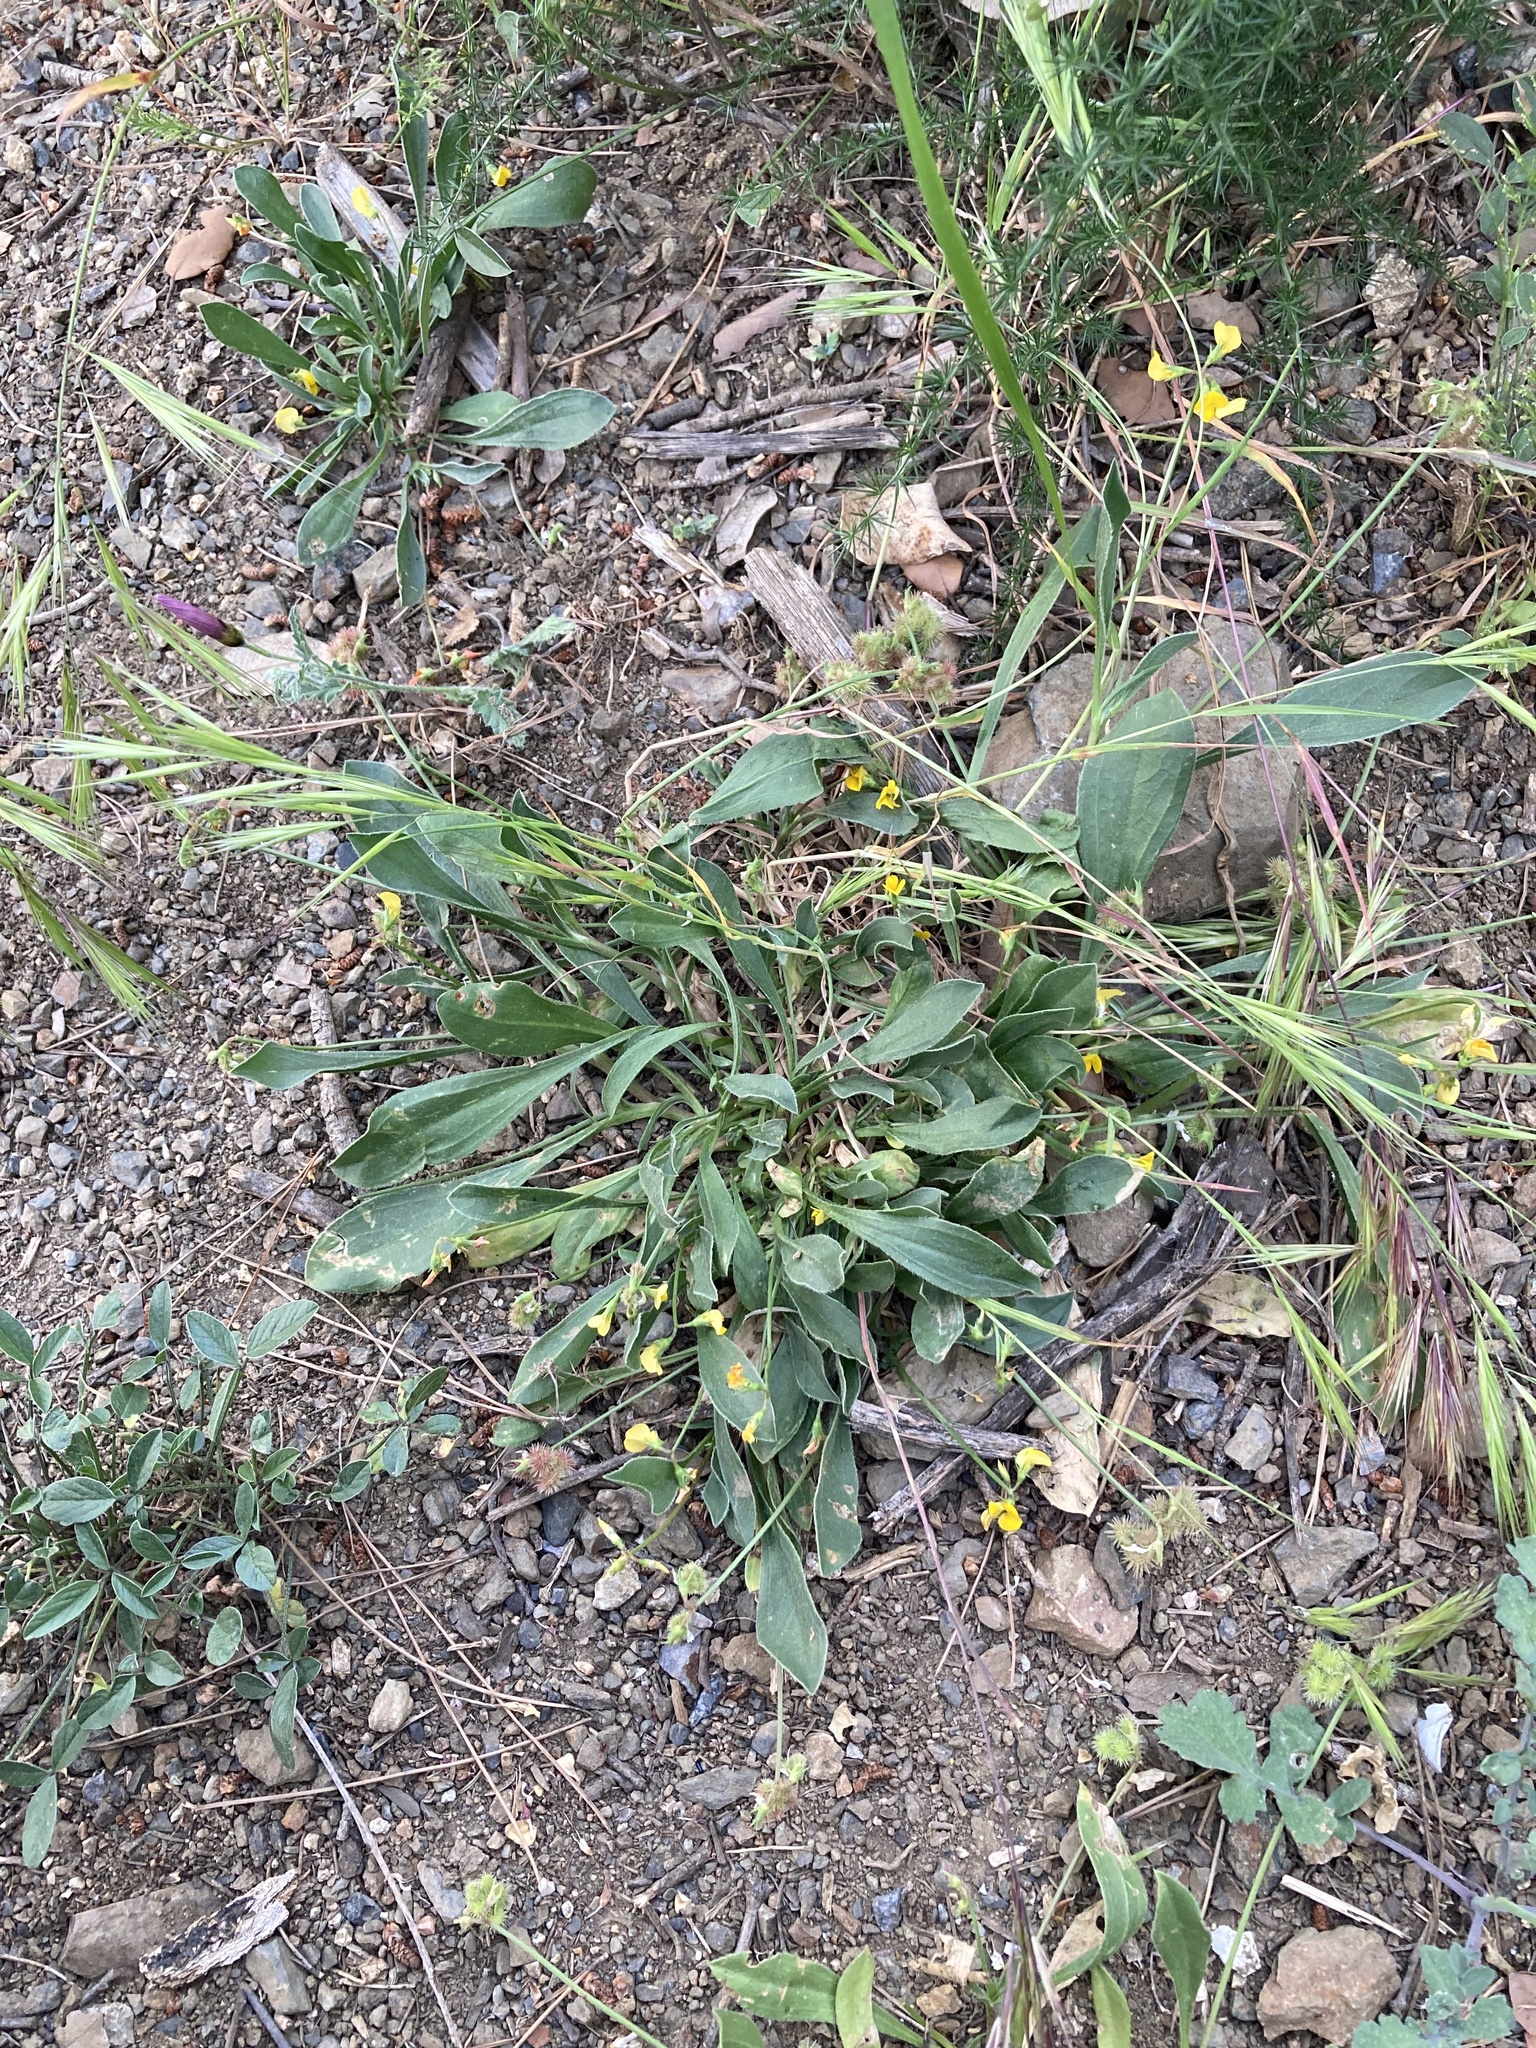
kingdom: Plantae
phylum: Tracheophyta
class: Magnoliopsida
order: Fabales
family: Fabaceae
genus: Scorpiurus
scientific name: Scorpiurus muricatus
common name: Caterpillar-plant
